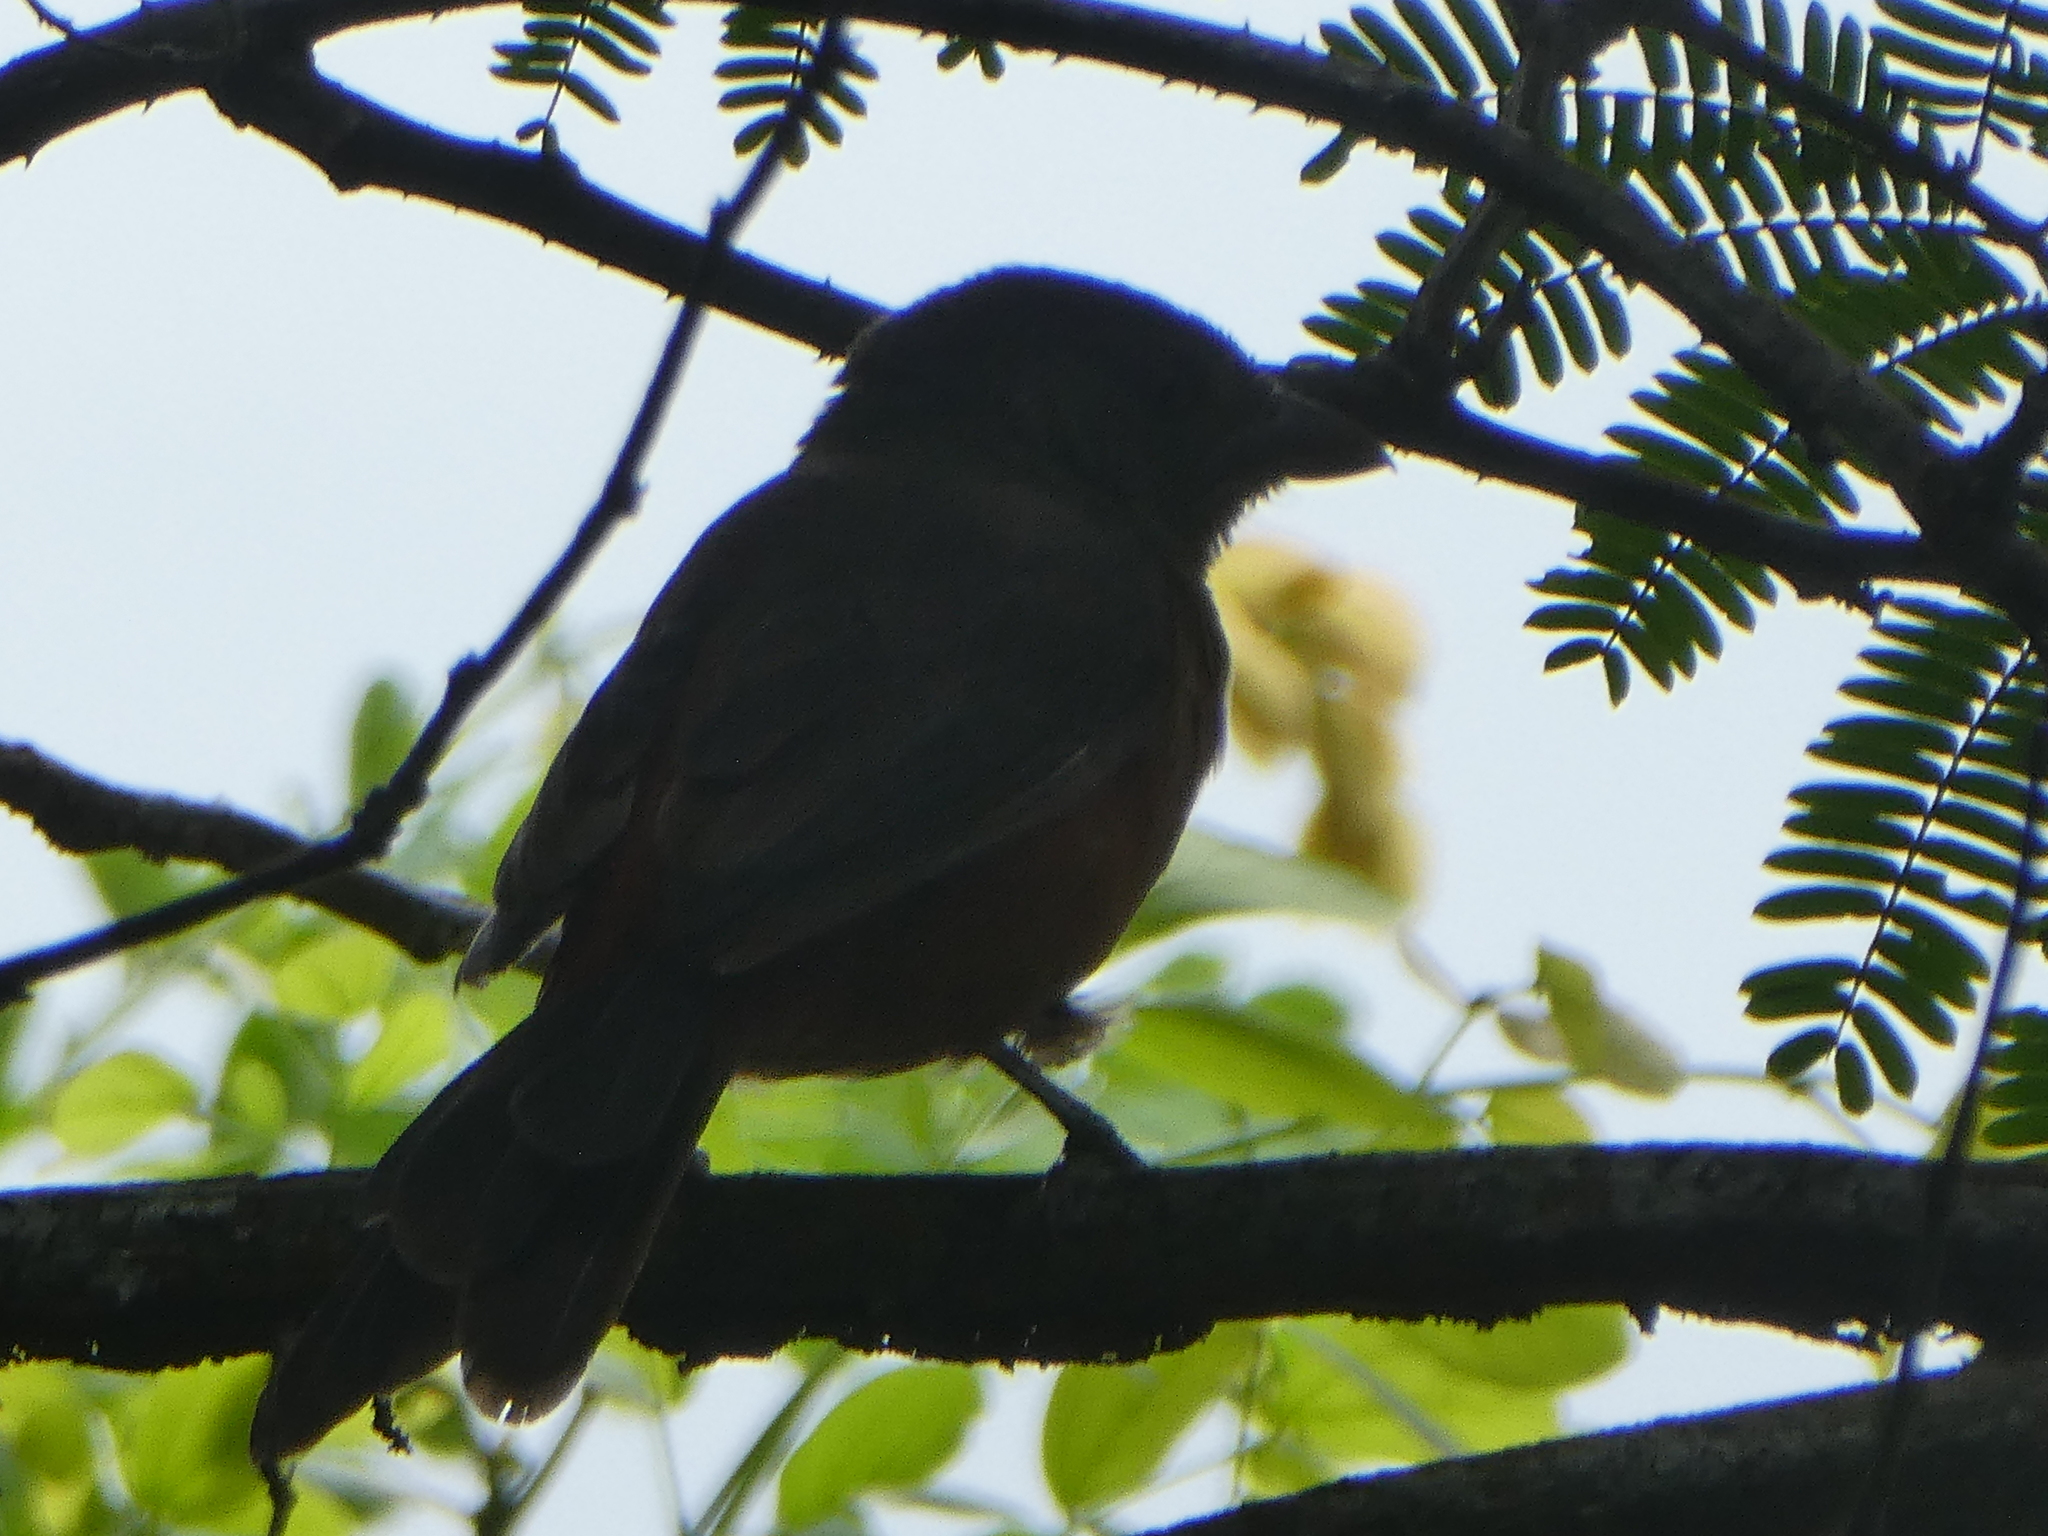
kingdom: Animalia
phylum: Chordata
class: Aves
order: Passeriformes
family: Thraupidae
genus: Ramphocelus
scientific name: Ramphocelus bresilia
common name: Brazilian tanager
